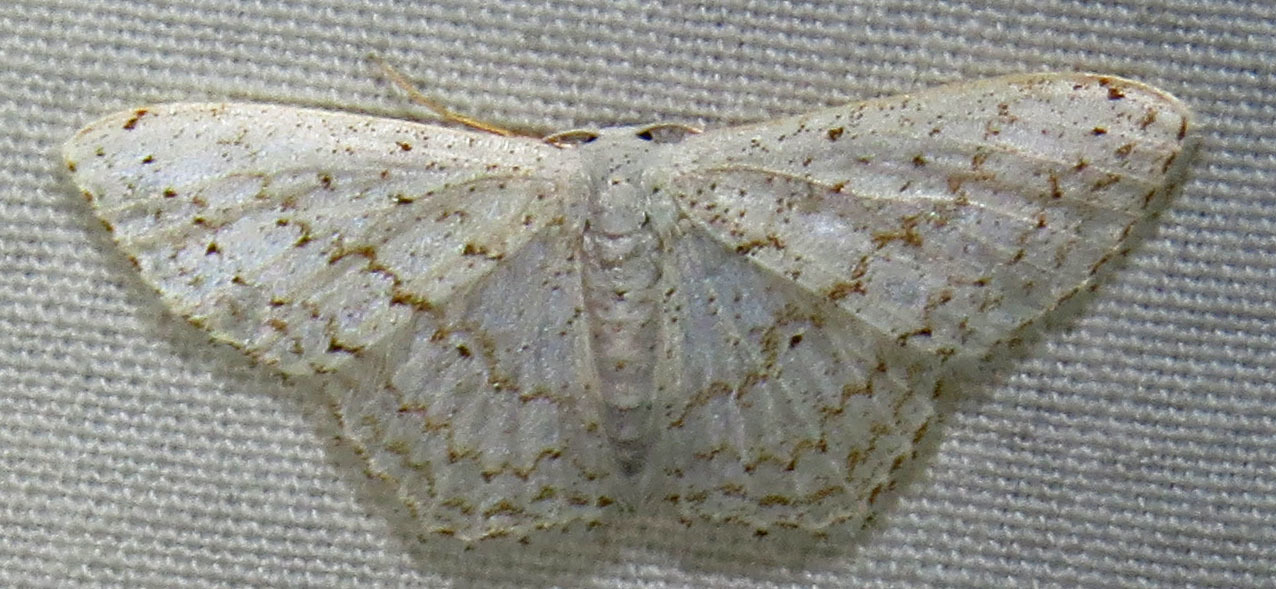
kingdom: Animalia
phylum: Arthropoda
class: Insecta
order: Lepidoptera
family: Geometridae
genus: Idaea
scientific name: Idaea tacturata
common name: Dot-lined wave
